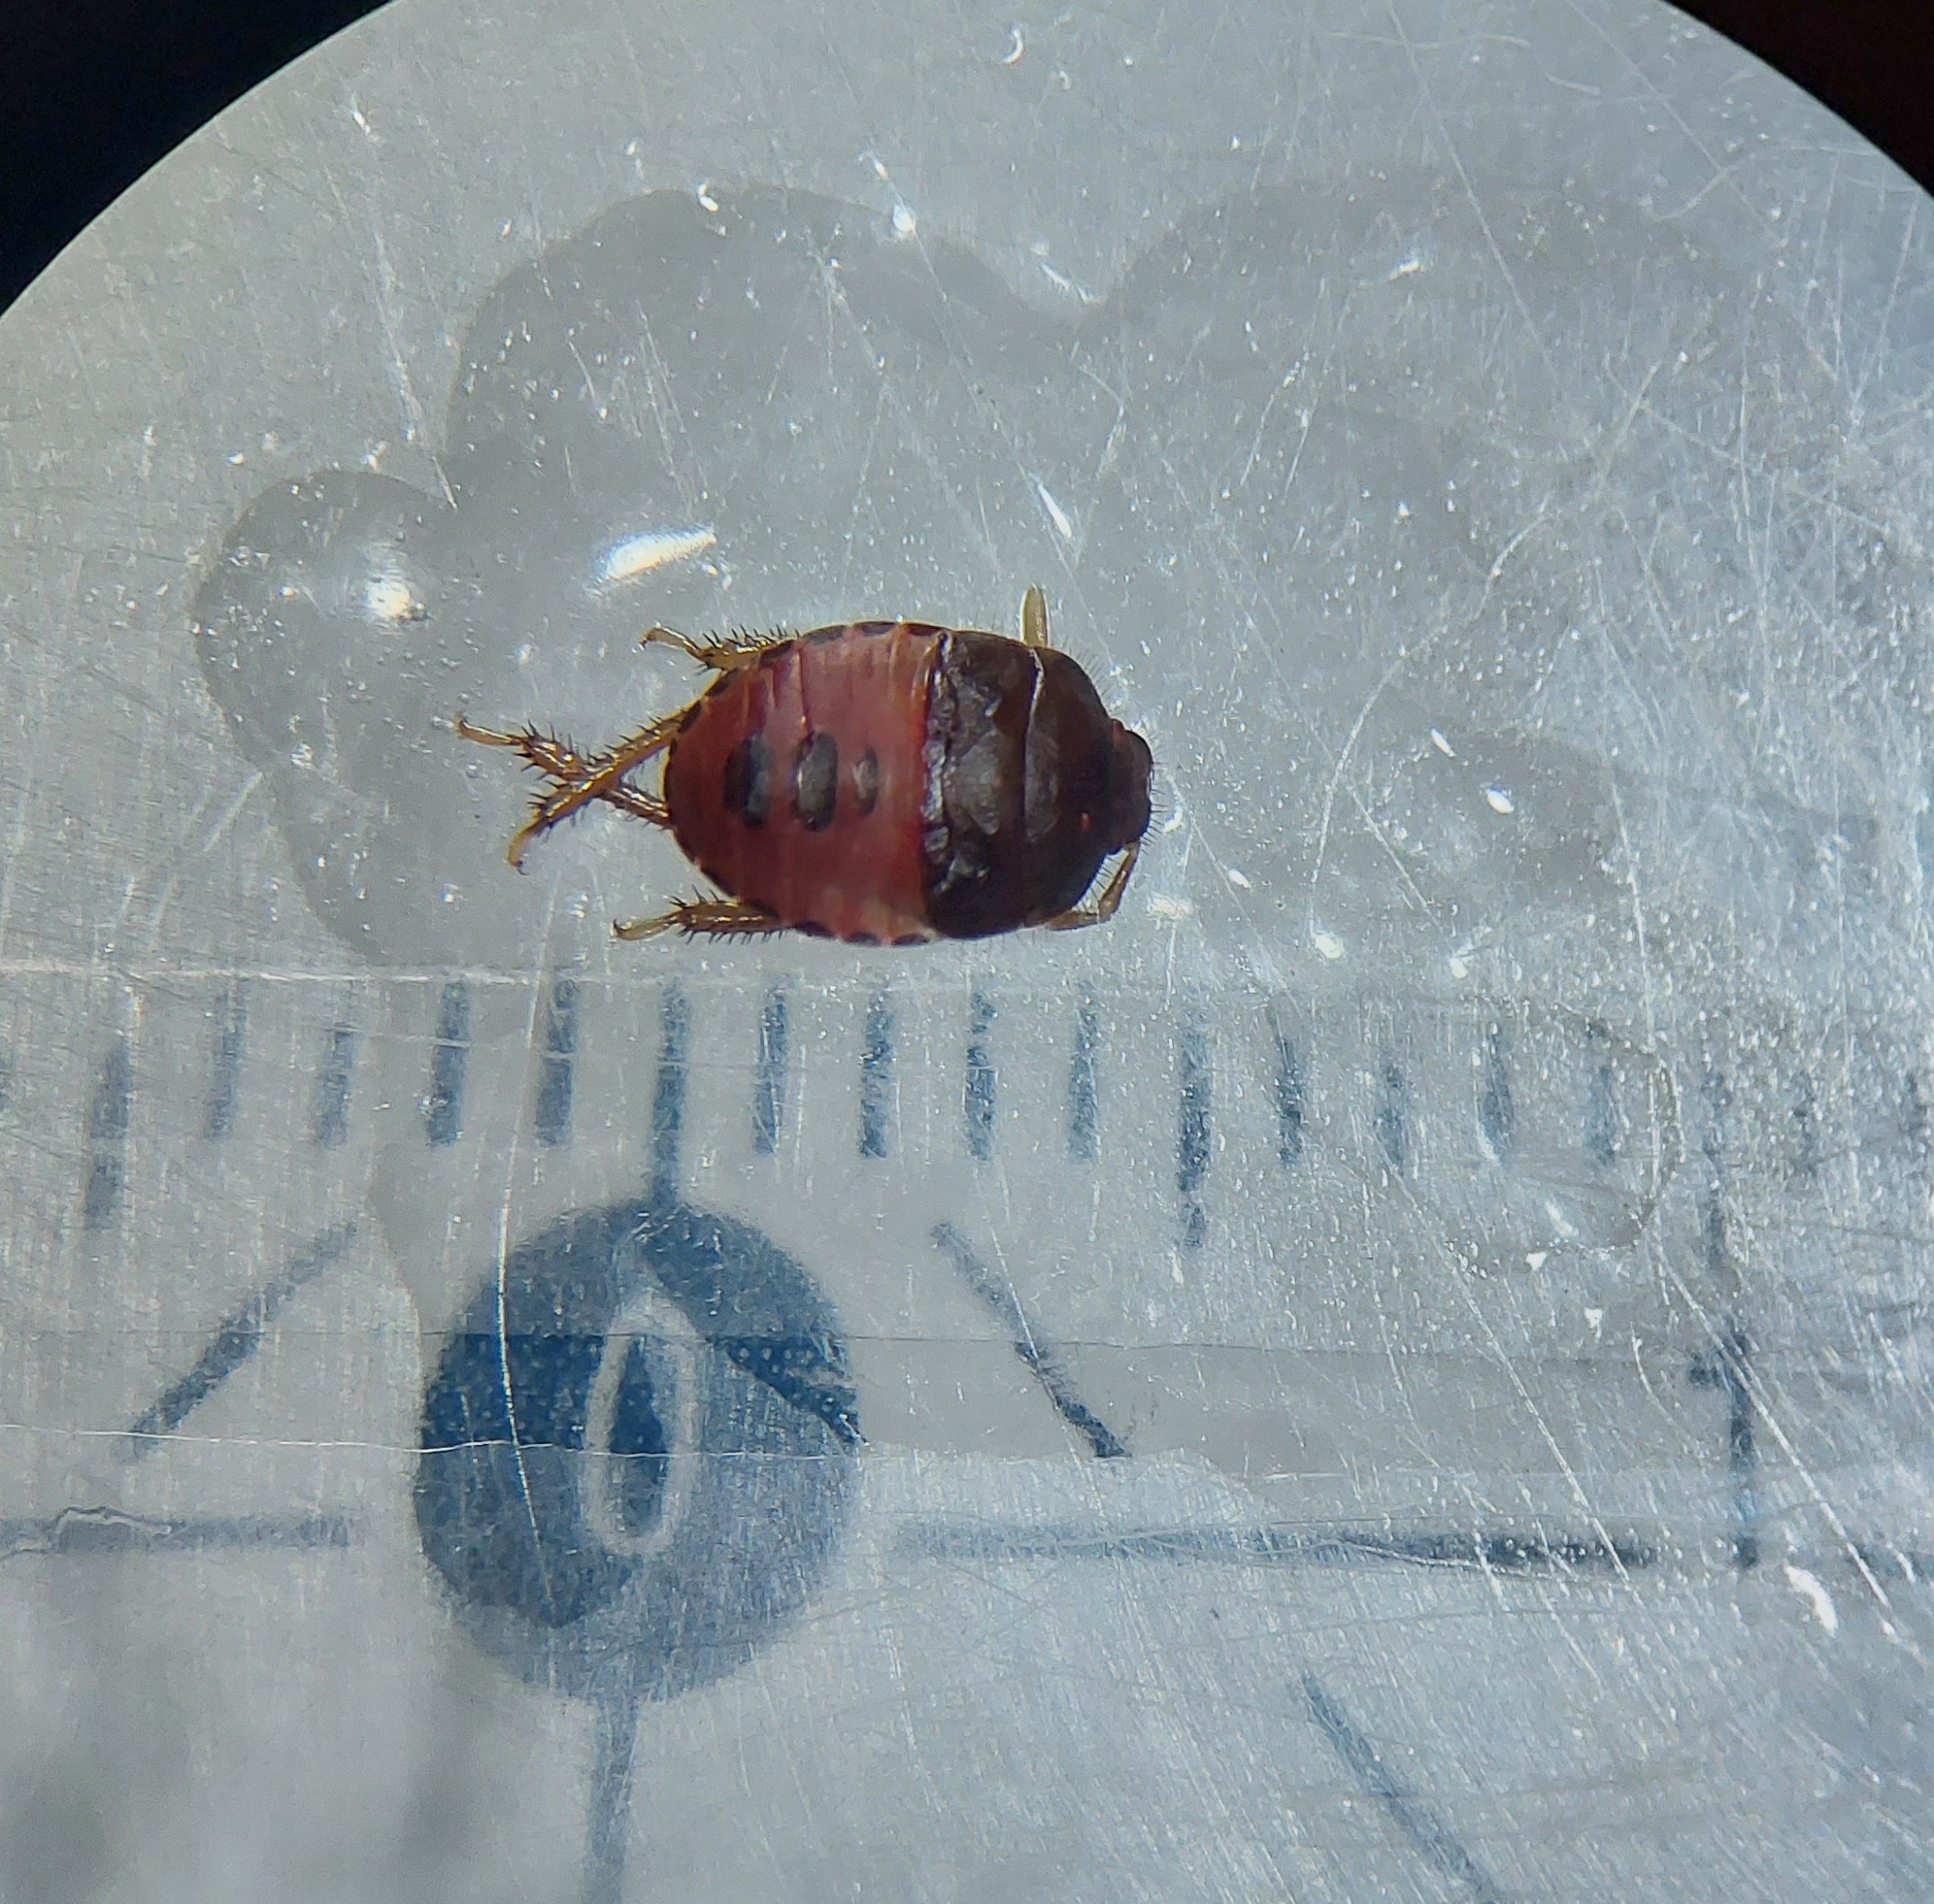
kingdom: Animalia
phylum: Arthropoda
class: Insecta
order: Hemiptera
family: Cydnidae
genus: Cydnus
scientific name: Cydnus aterrimus
